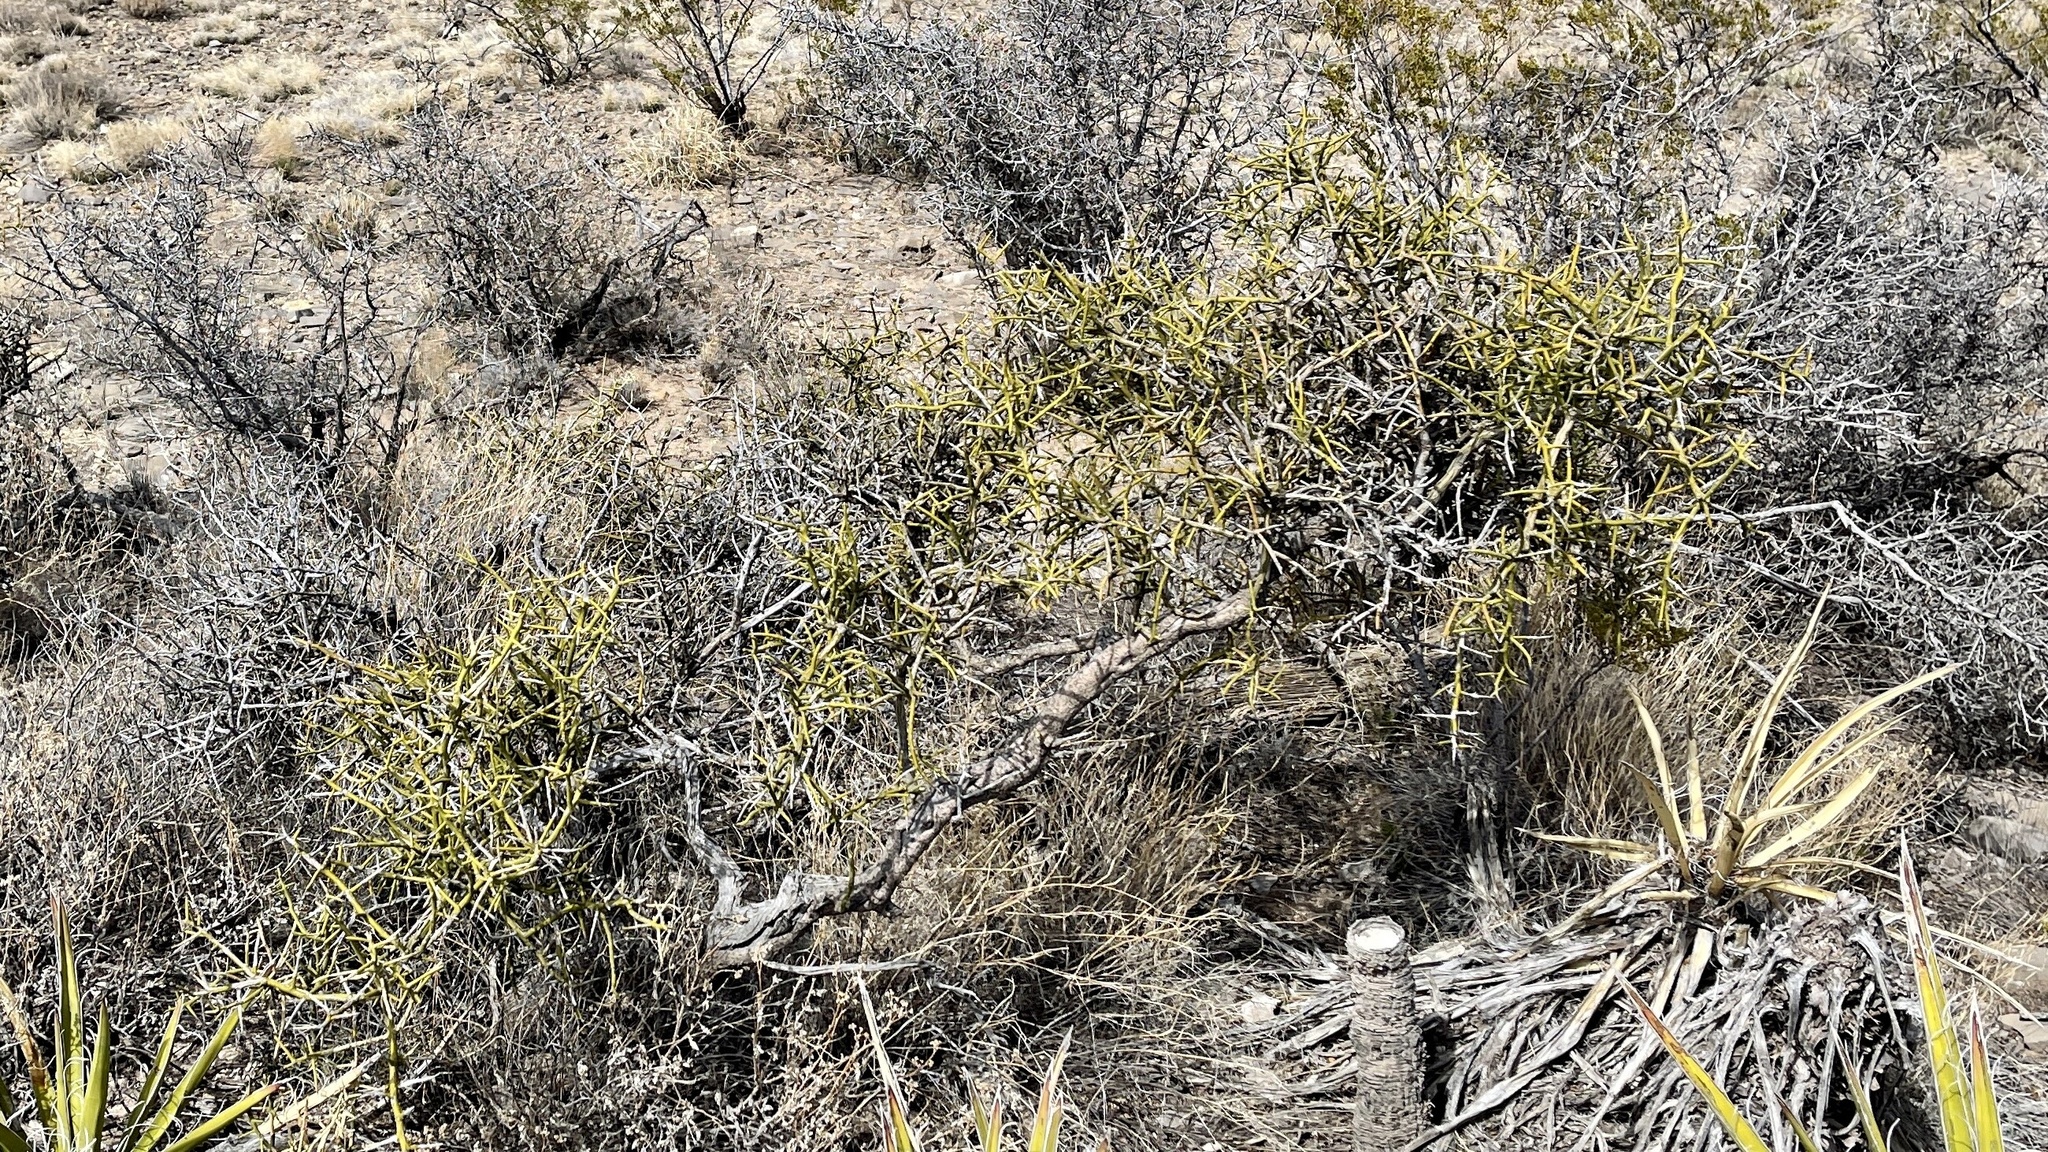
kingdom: Plantae
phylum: Tracheophyta
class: Magnoliopsida
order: Brassicales
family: Koeberliniaceae
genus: Koeberlinia
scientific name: Koeberlinia spinosa
